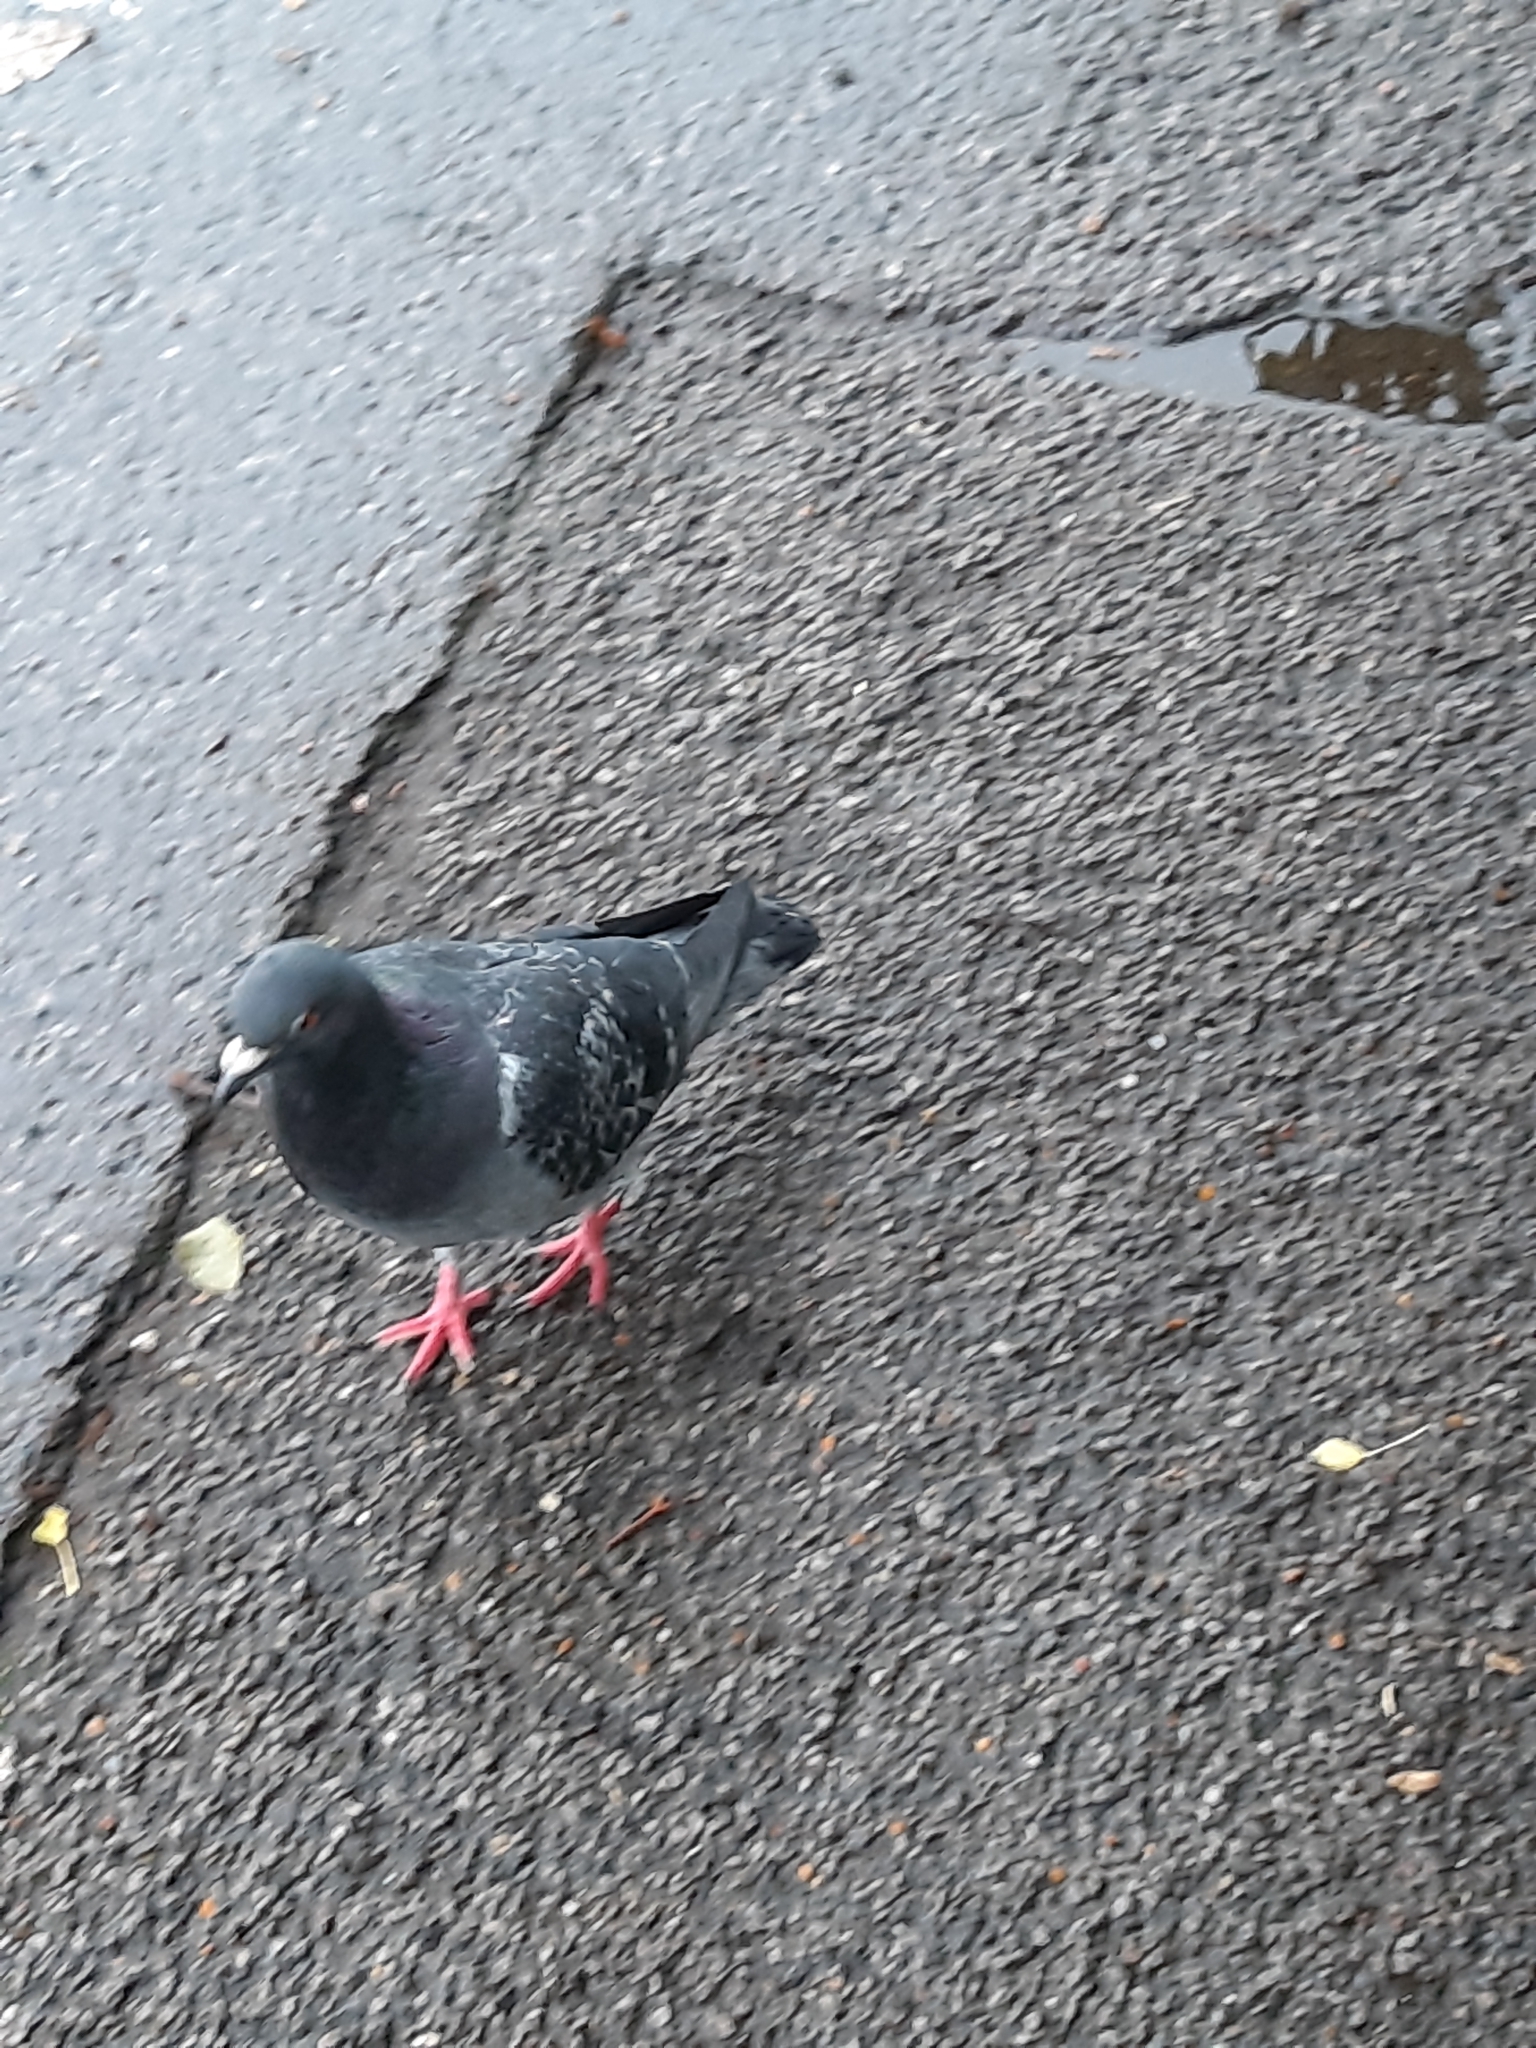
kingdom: Animalia
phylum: Chordata
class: Aves
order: Columbiformes
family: Columbidae
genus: Columba
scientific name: Columba livia
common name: Rock pigeon
